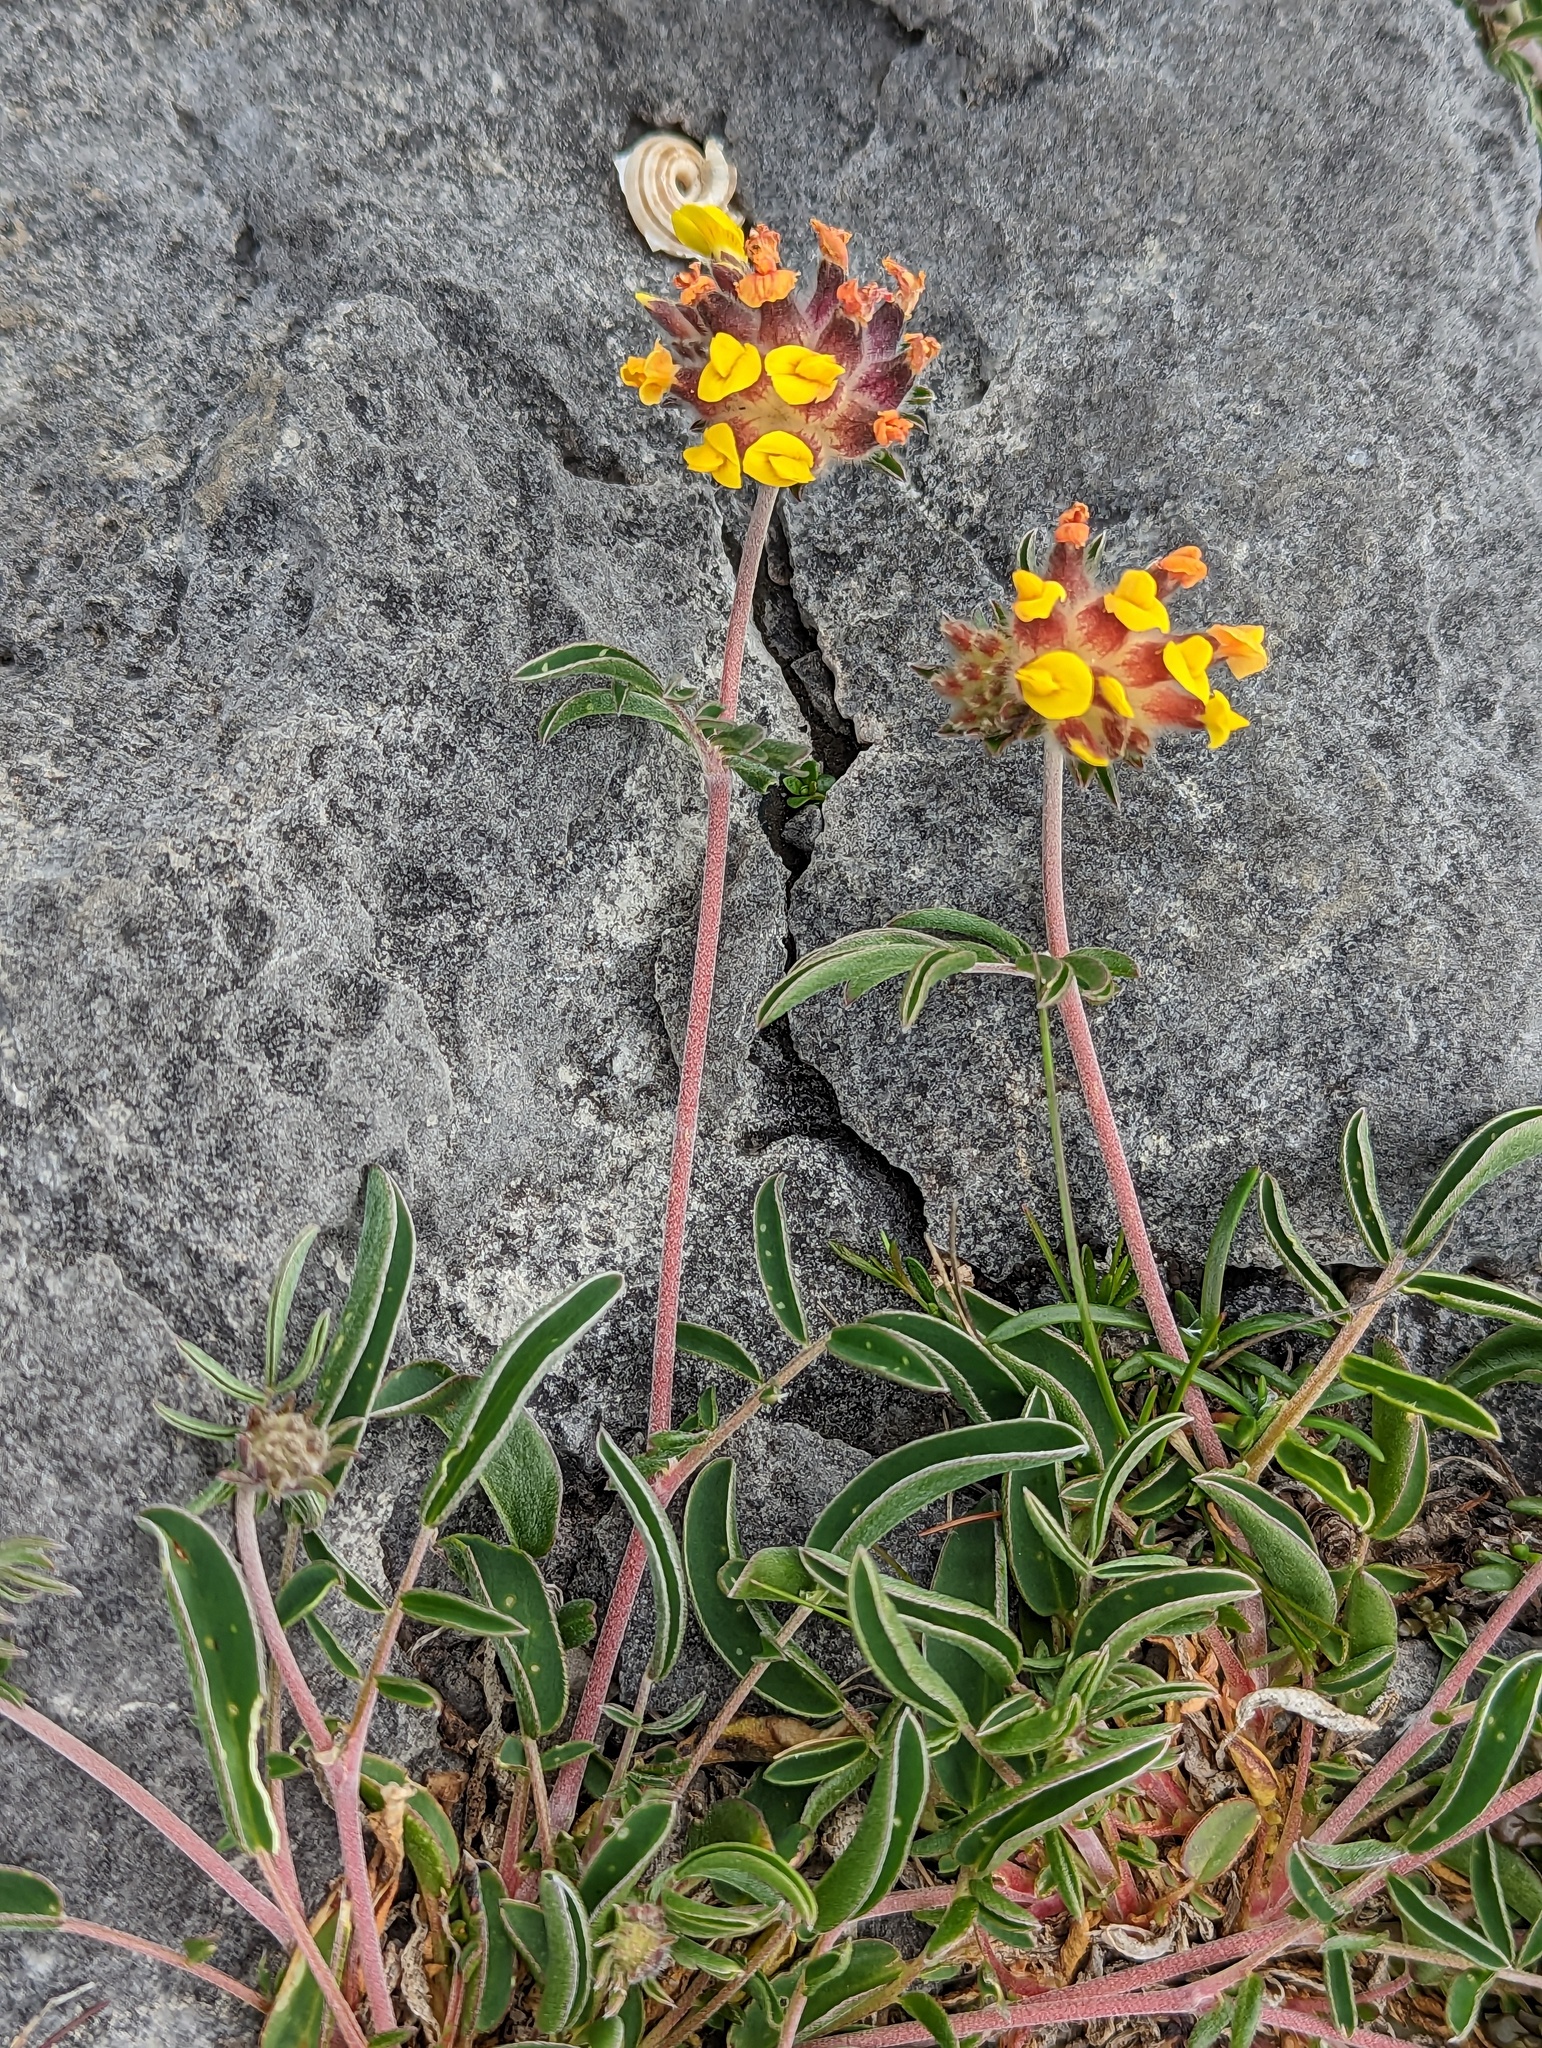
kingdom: Plantae
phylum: Tracheophyta
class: Magnoliopsida
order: Fabales
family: Fabaceae
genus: Anthyllis
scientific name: Anthyllis vulneraria
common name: Kidney vetch
